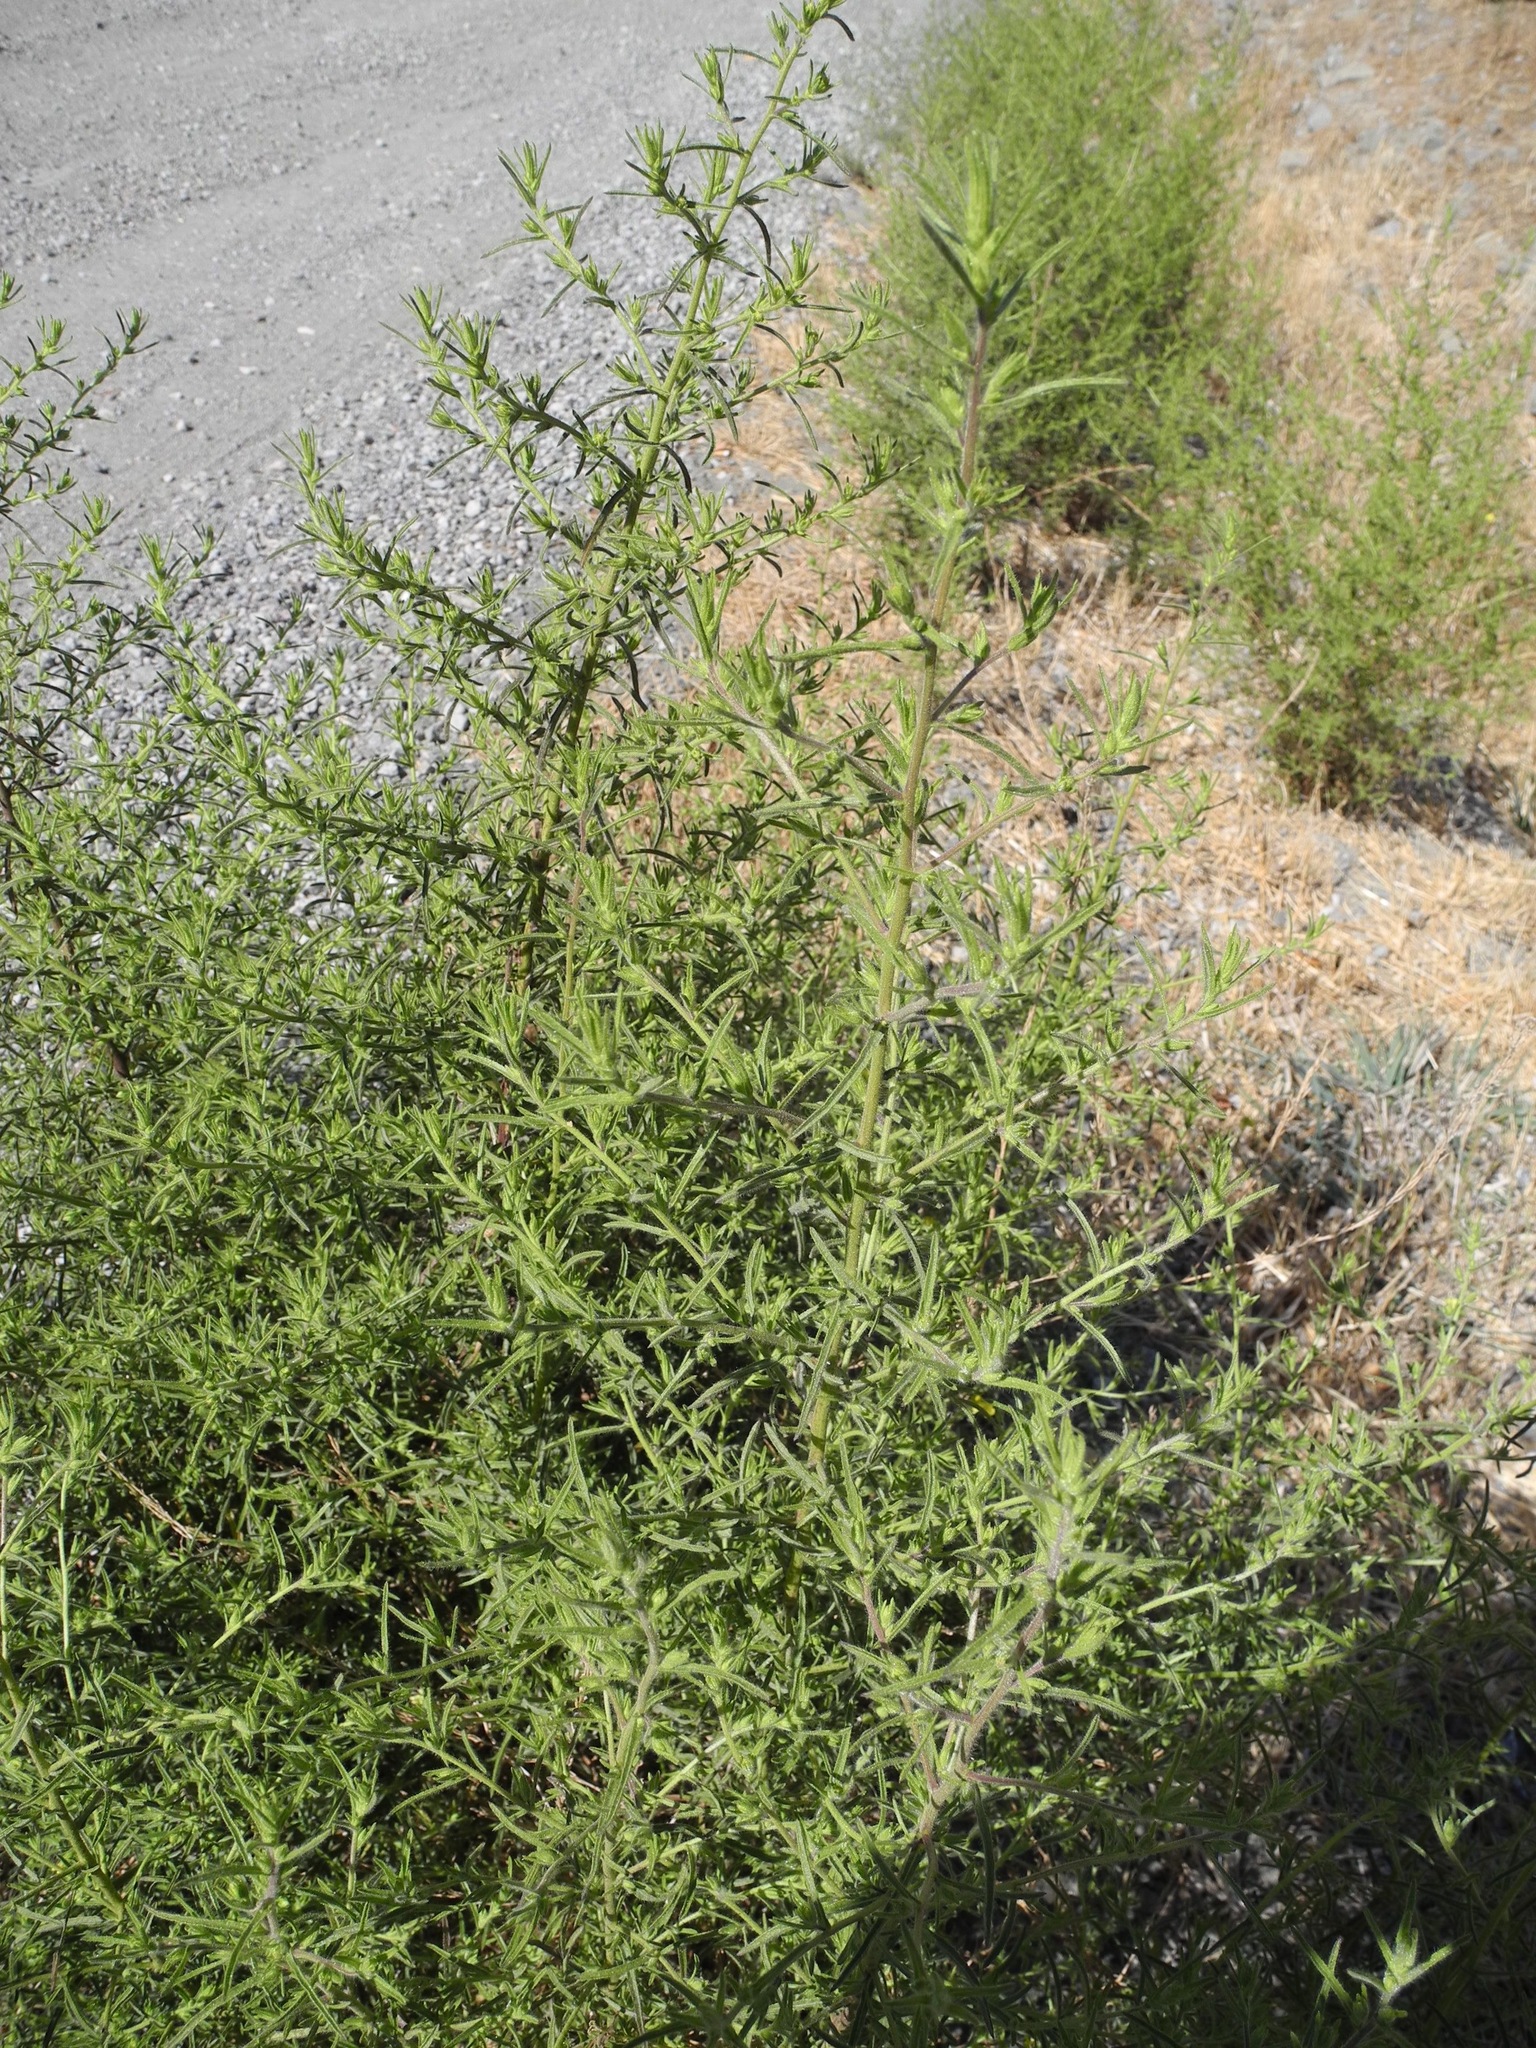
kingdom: Plantae
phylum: Tracheophyta
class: Magnoliopsida
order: Asterales
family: Asteraceae
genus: Dittrichia
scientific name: Dittrichia graveolens
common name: Stinking fleabane
